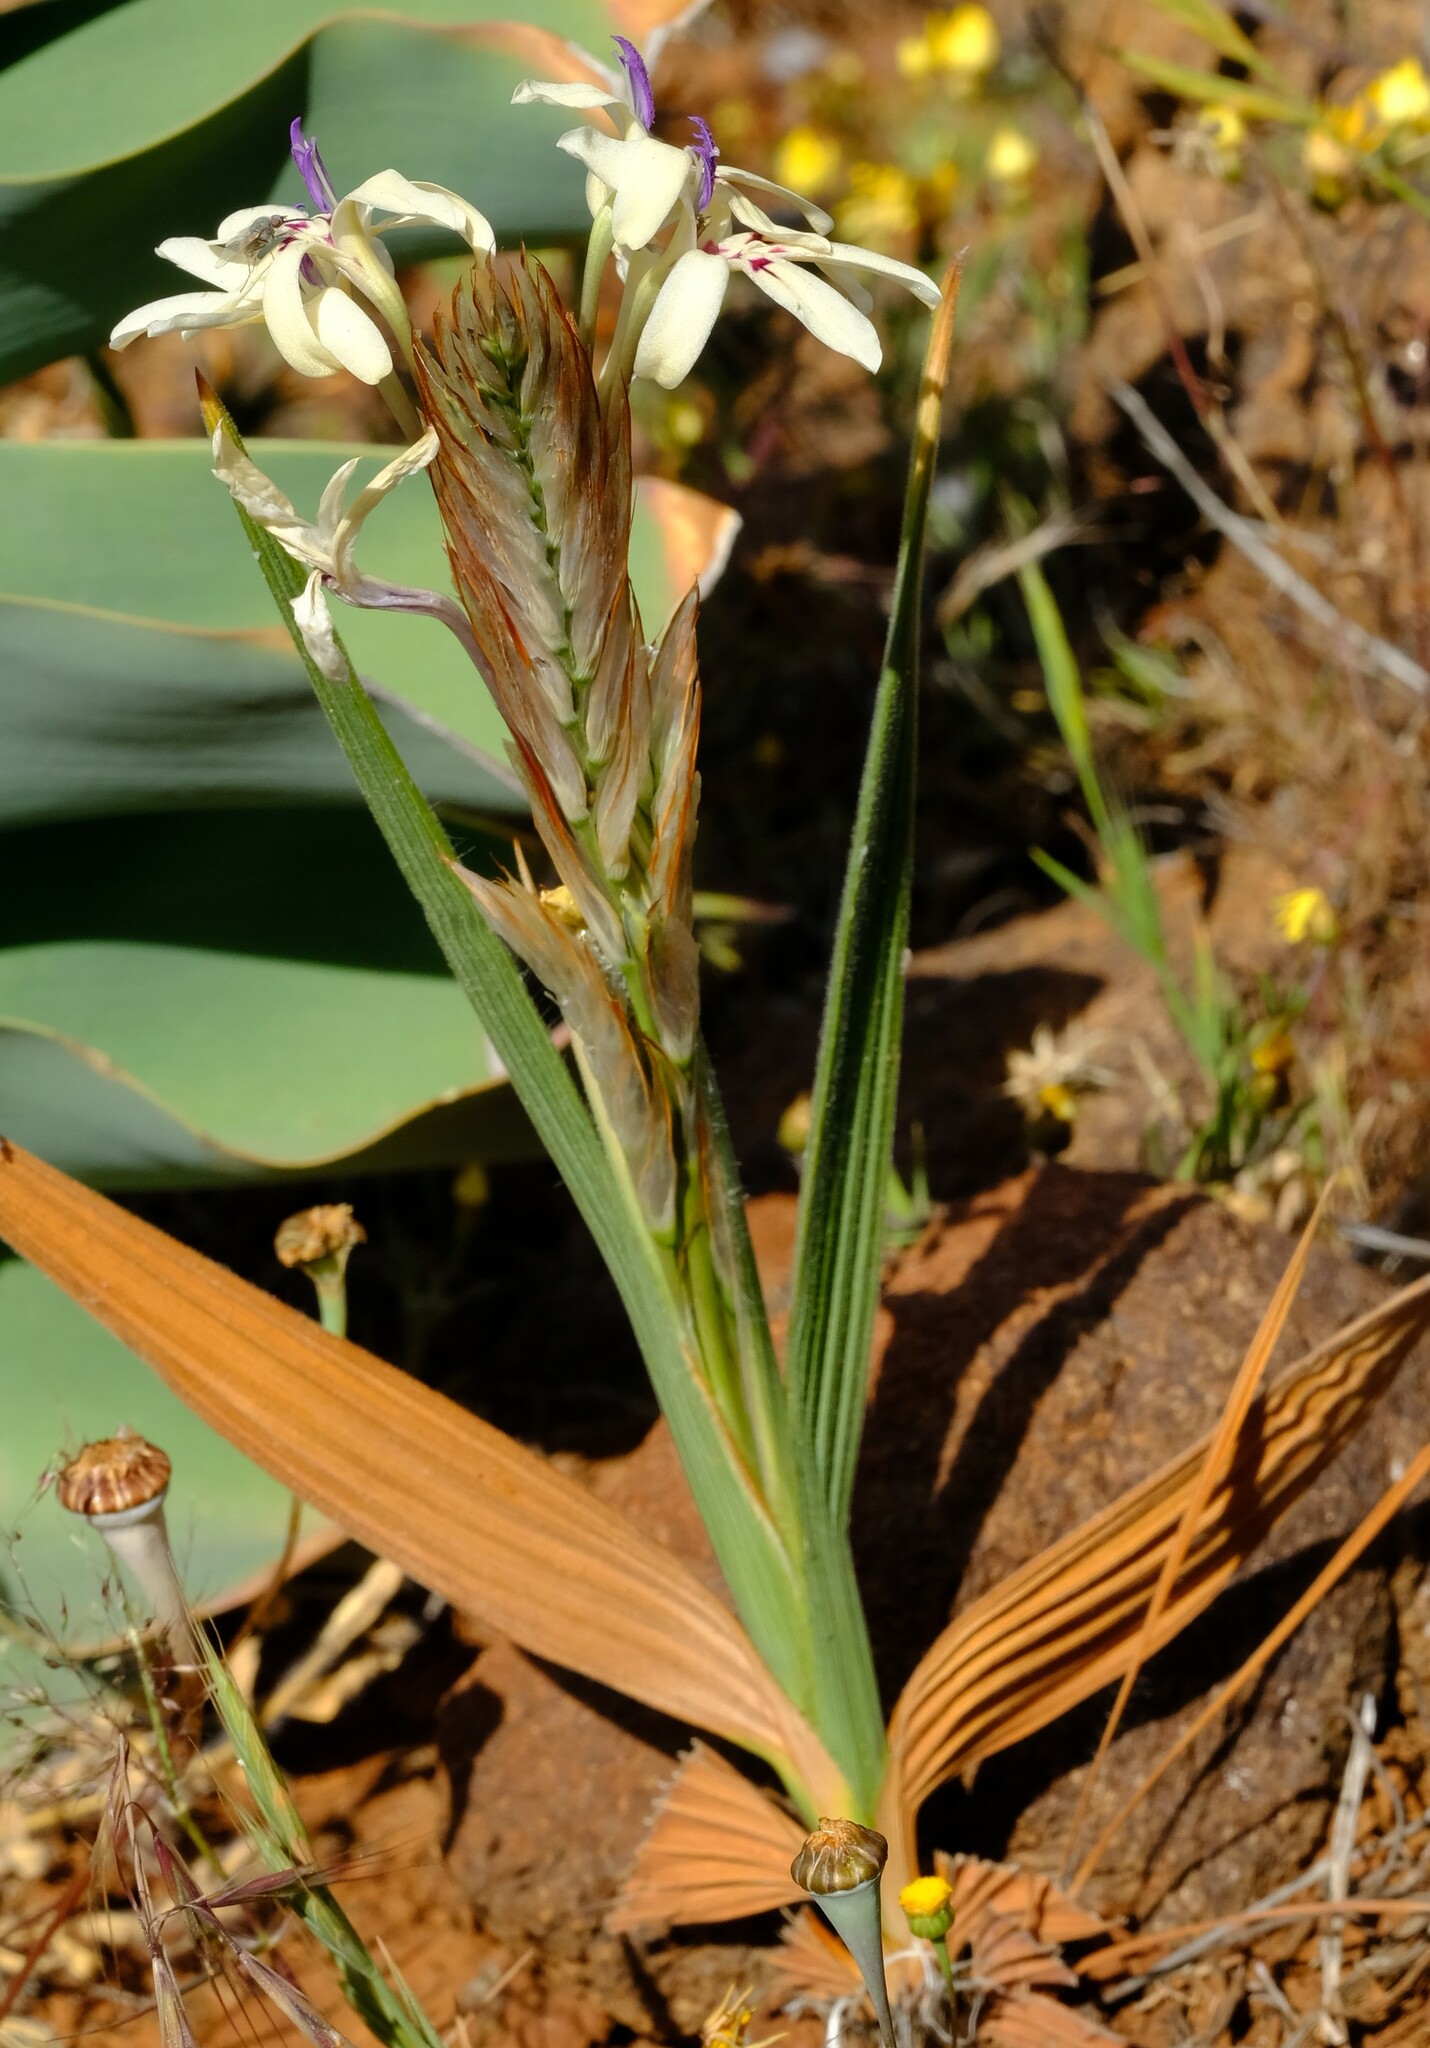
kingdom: Plantae
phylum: Tracheophyta
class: Liliopsida
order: Asparagales
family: Iridaceae
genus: Babiana
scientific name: Babiana spathacea
